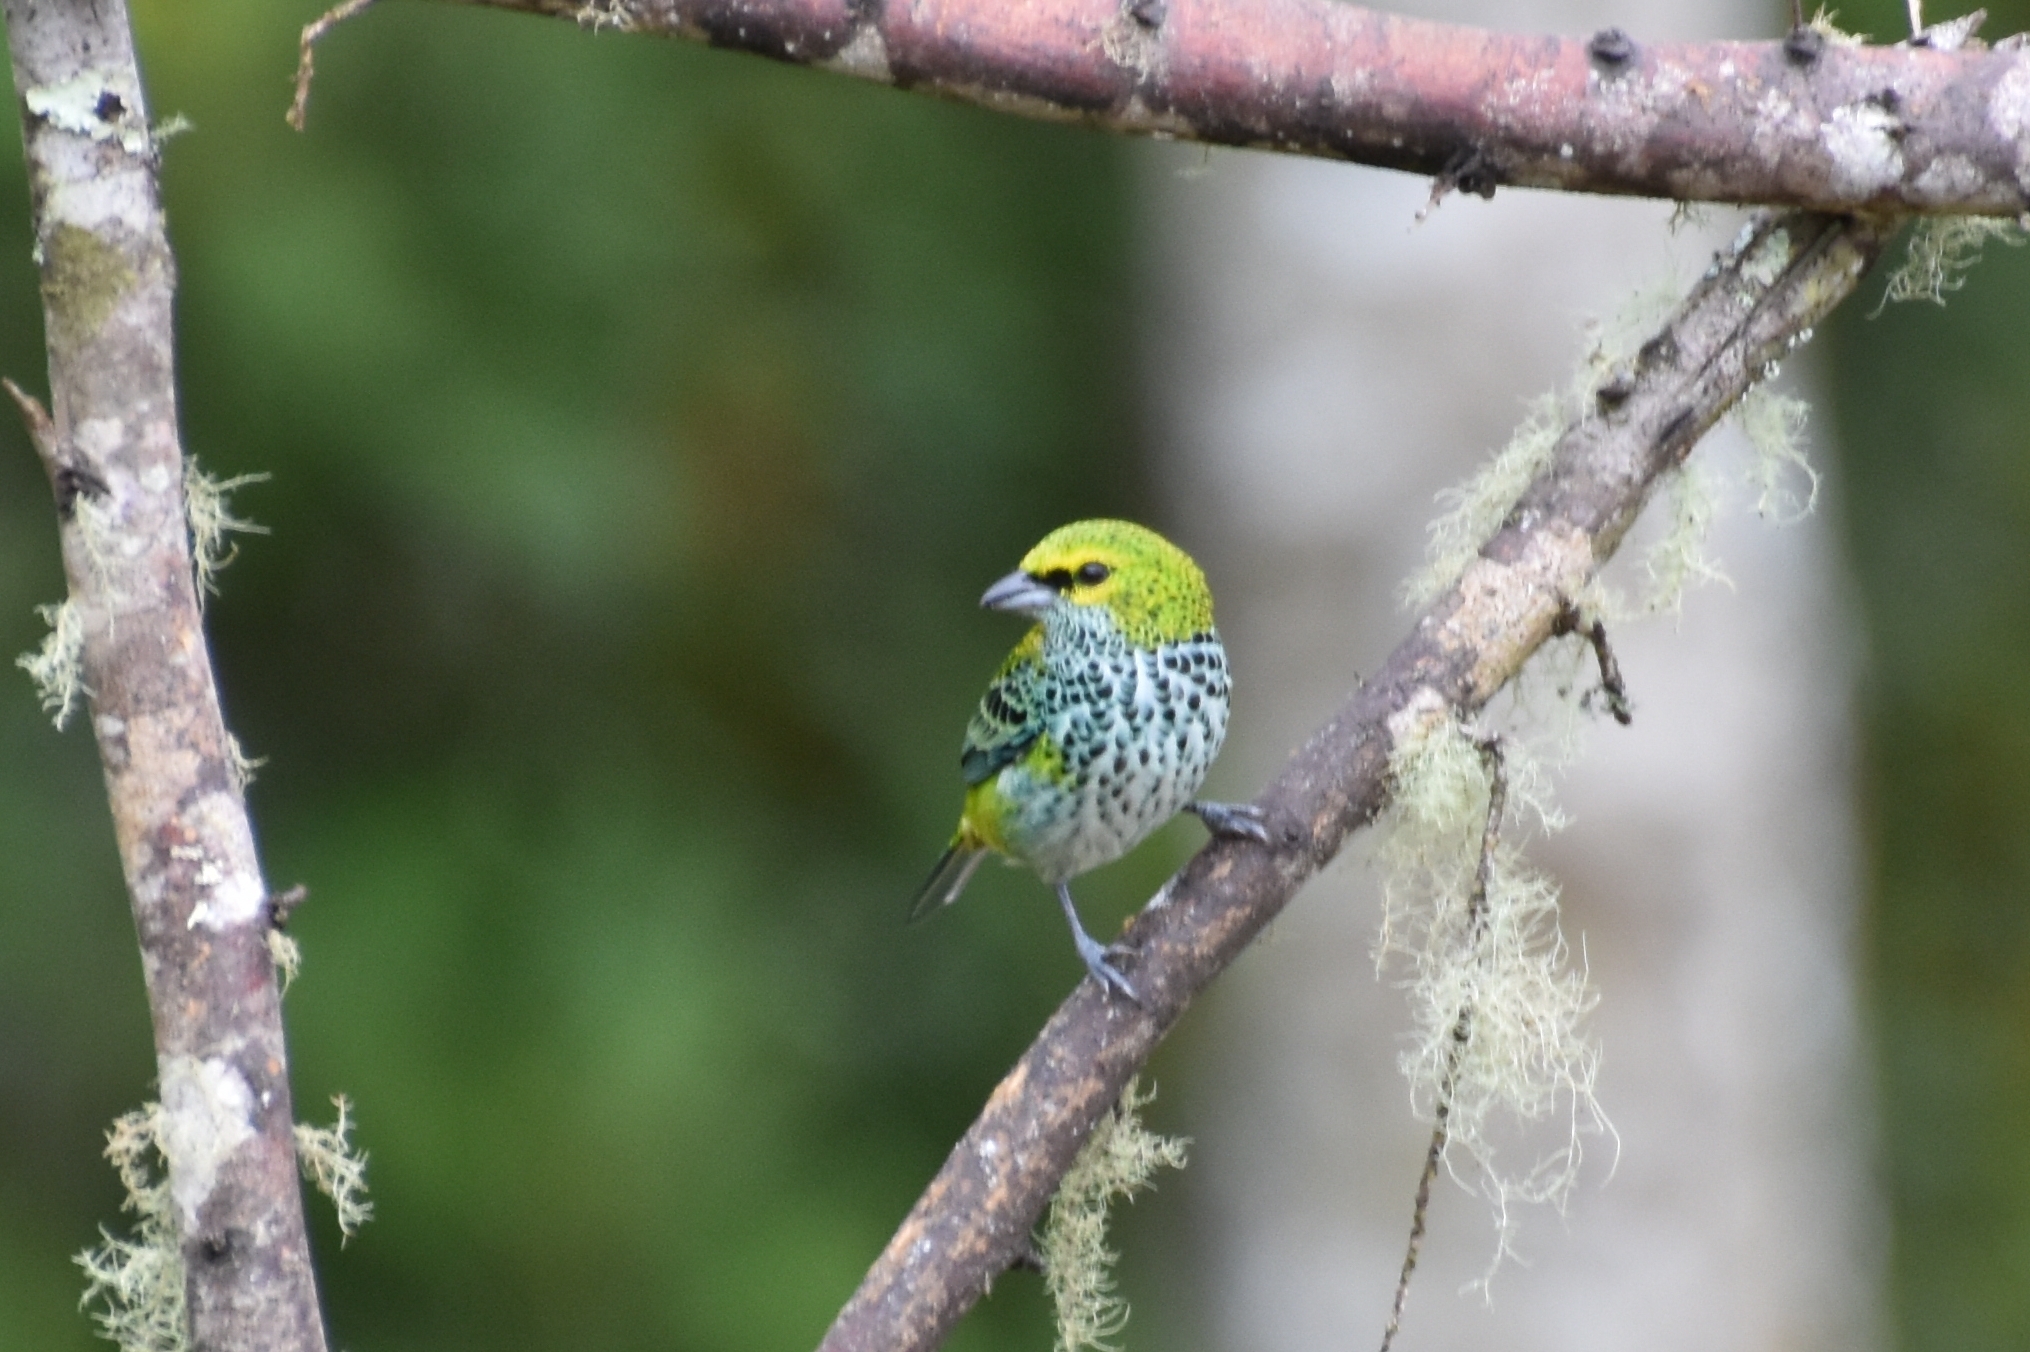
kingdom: Animalia
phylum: Chordata
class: Aves
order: Passeriformes
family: Thraupidae
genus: Ixothraupis
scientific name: Ixothraupis guttata
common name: Speckled tanager
